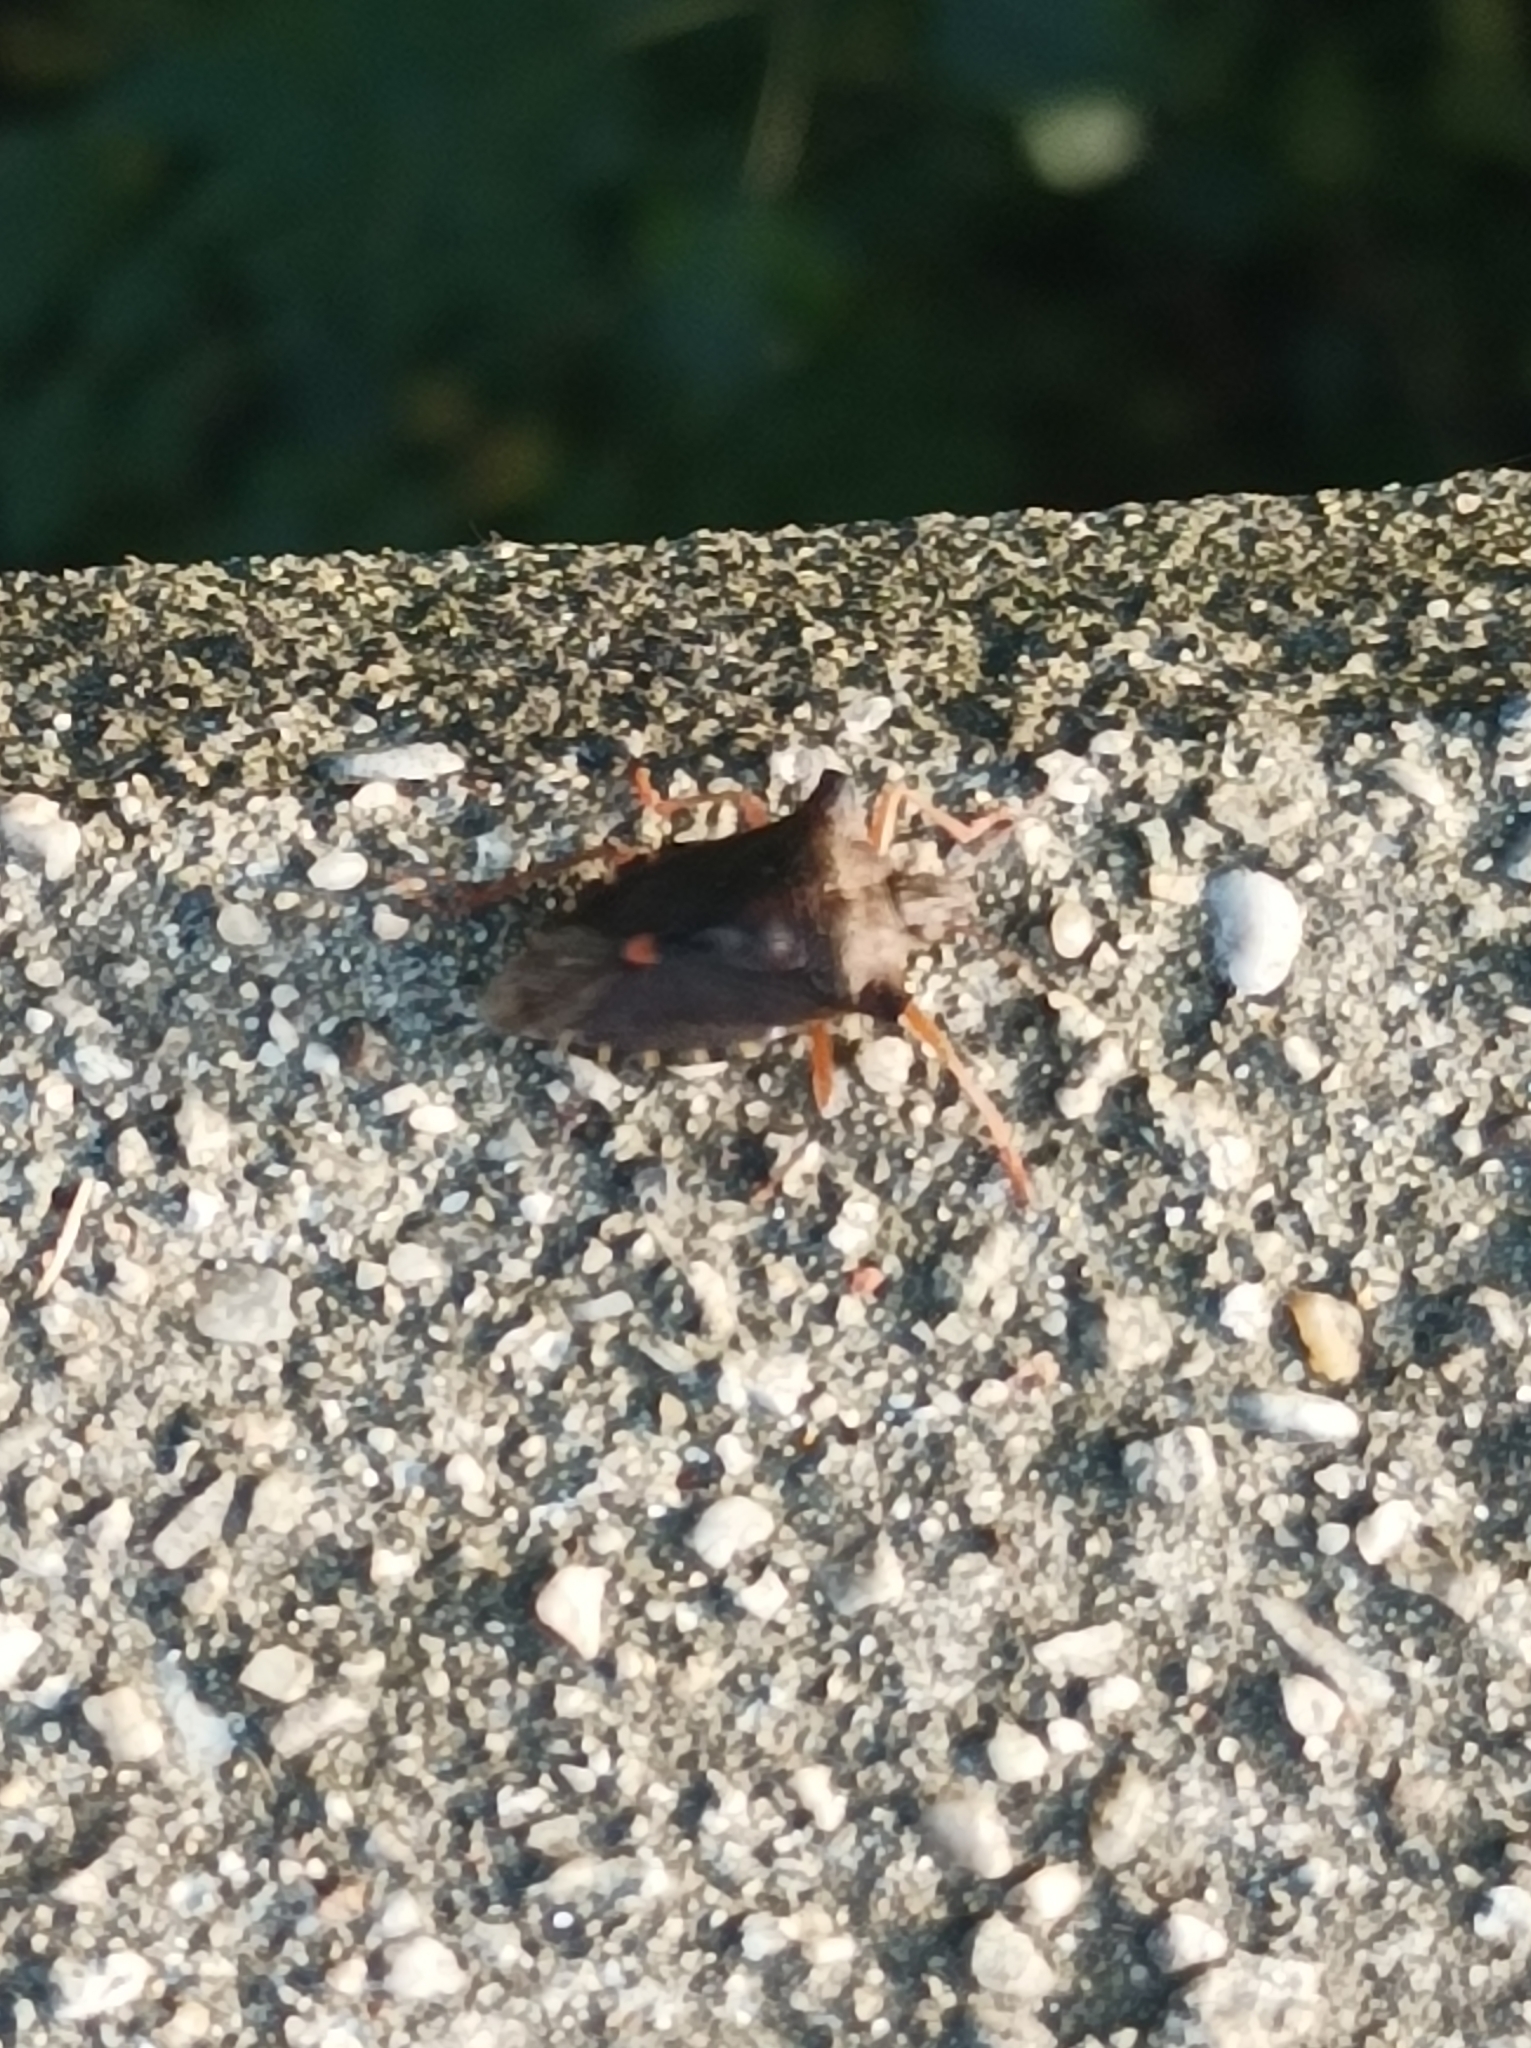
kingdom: Animalia
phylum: Arthropoda
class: Insecta
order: Hemiptera
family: Pentatomidae
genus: Pentatoma
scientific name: Pentatoma rufipes
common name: Forest bug
